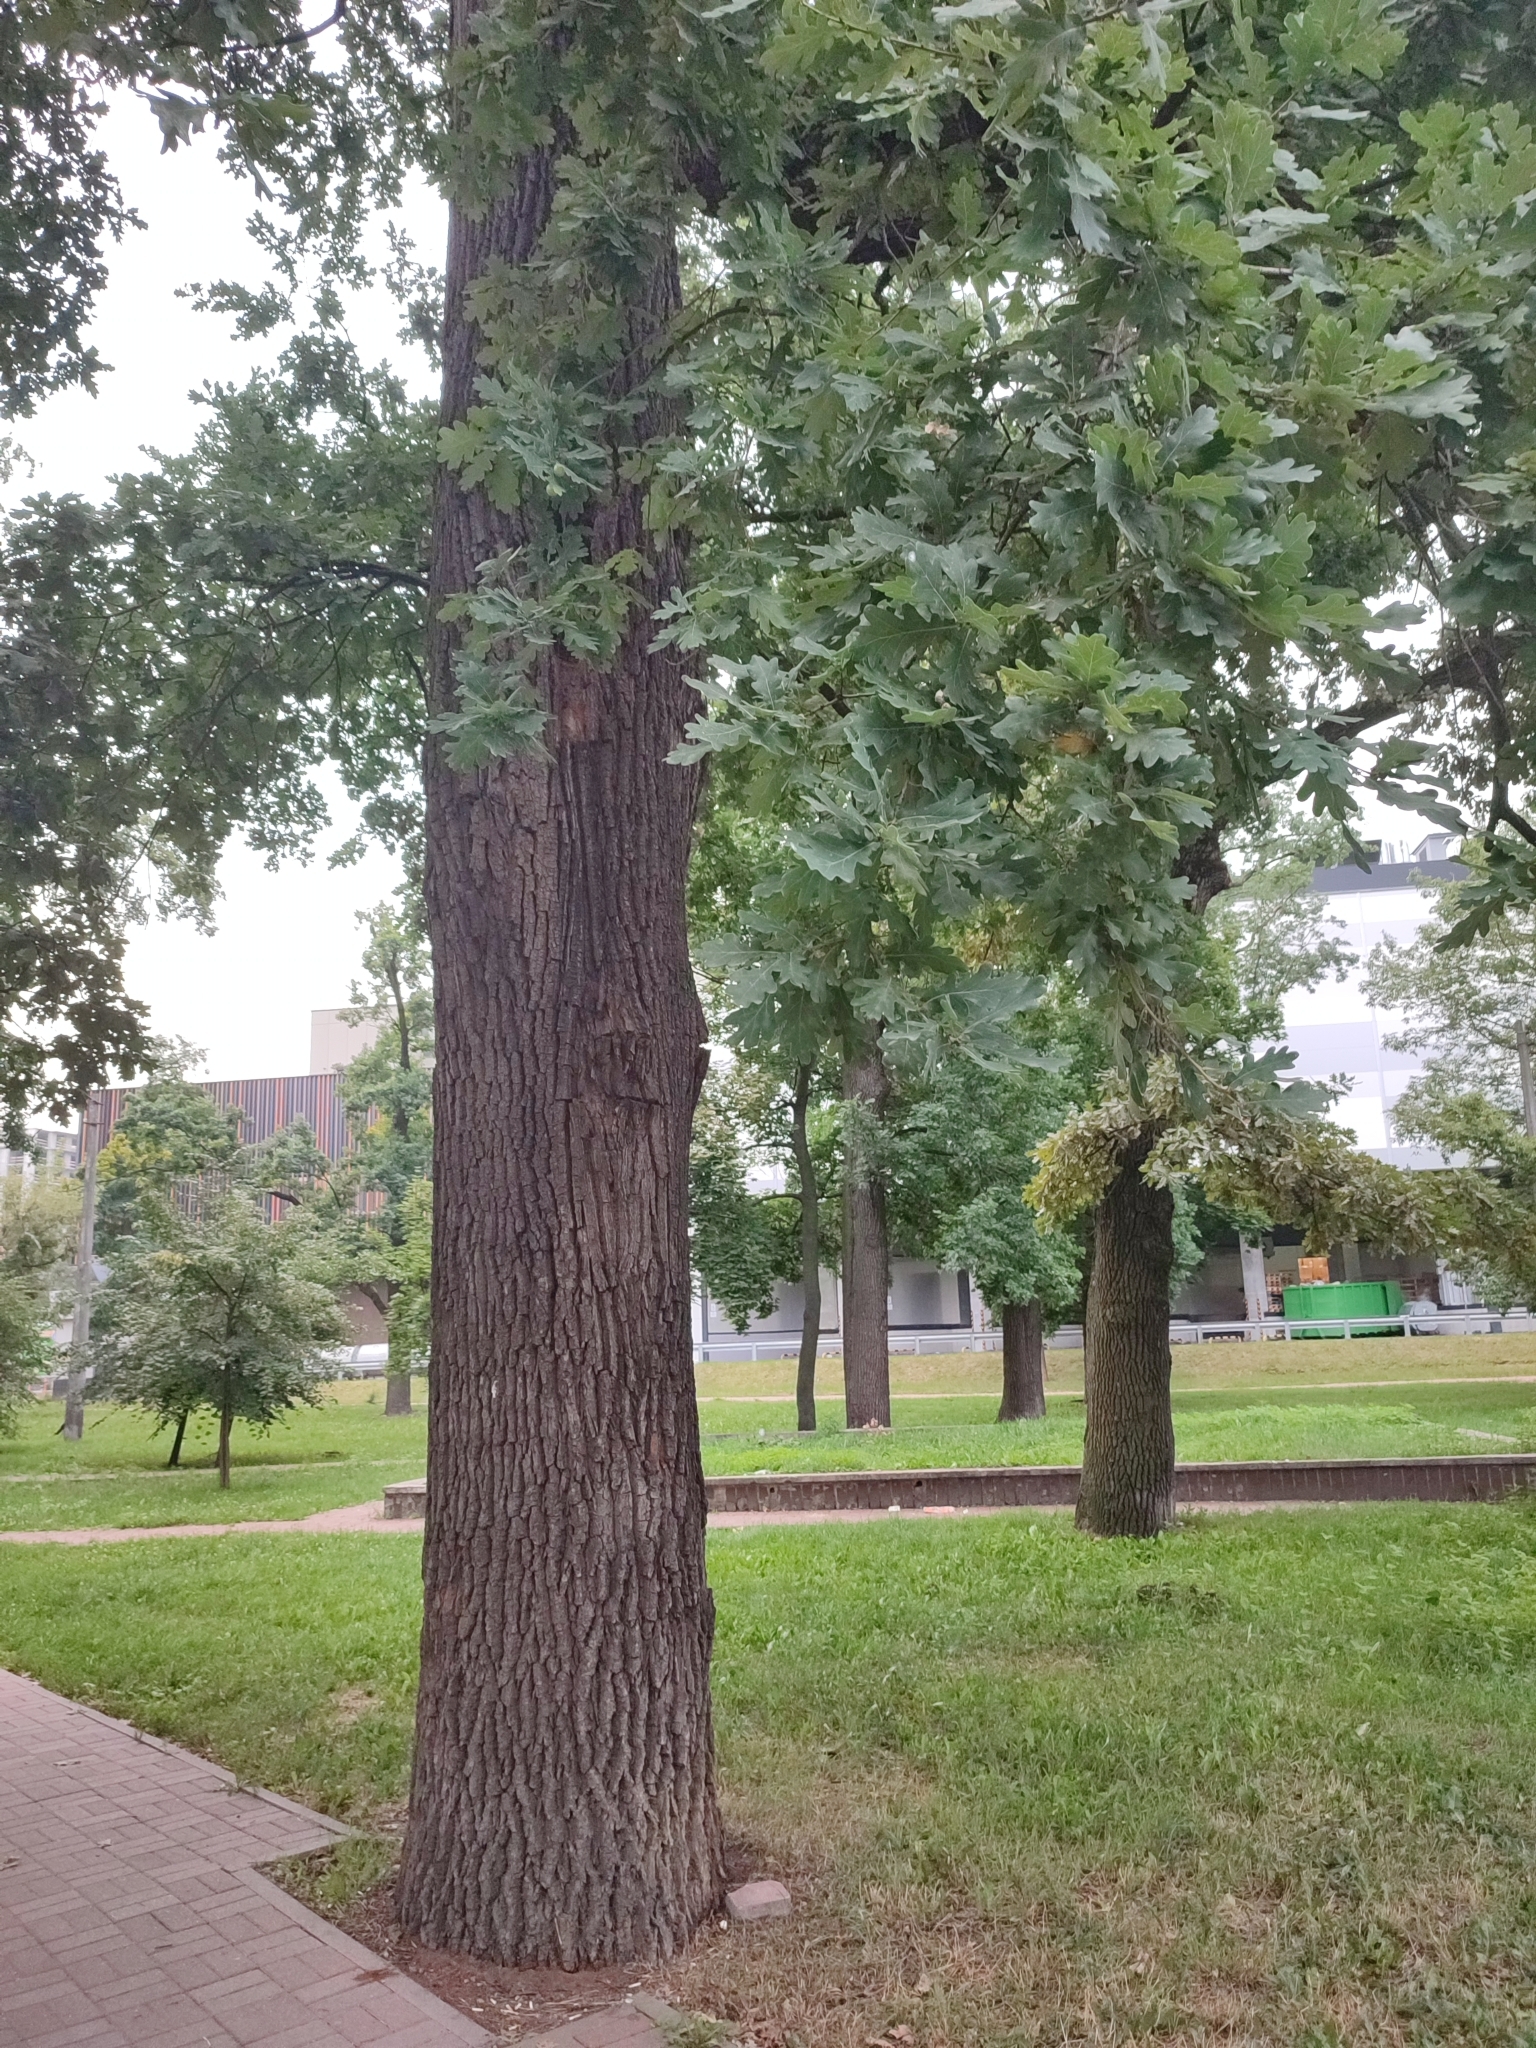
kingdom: Plantae
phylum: Tracheophyta
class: Magnoliopsida
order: Fagales
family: Fagaceae
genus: Quercus
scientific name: Quercus robur
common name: Pedunculate oak
